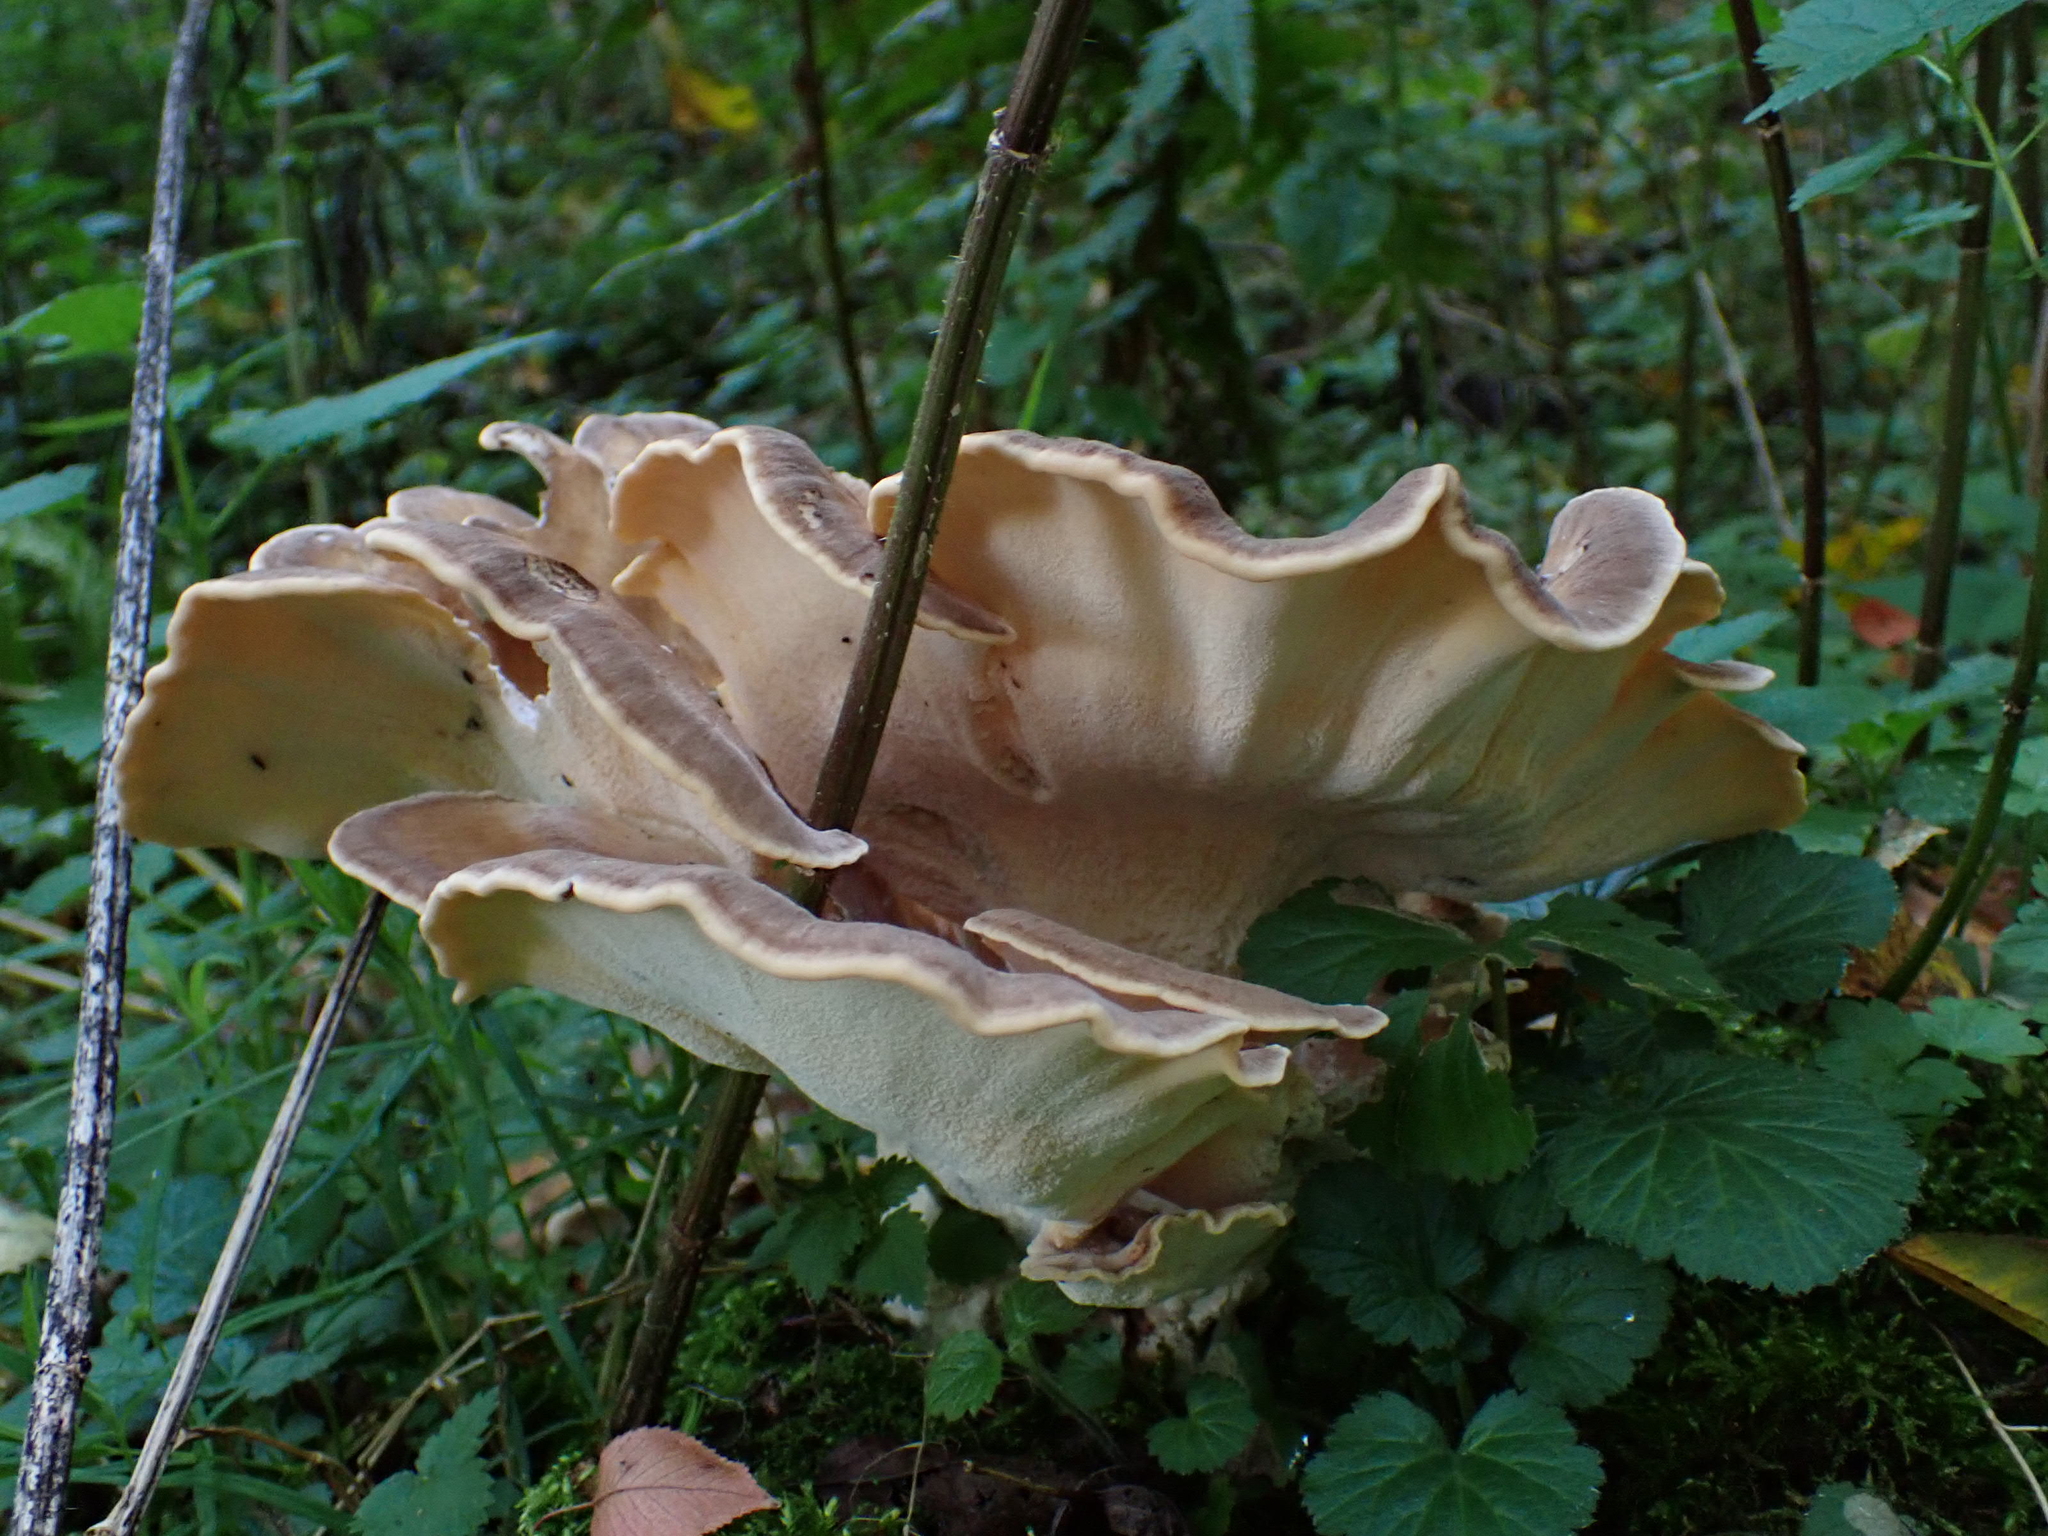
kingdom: Fungi
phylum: Basidiomycota
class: Agaricomycetes
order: Polyporales
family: Meripilaceae
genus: Meripilus
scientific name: Meripilus giganteus
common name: Giant polypore
